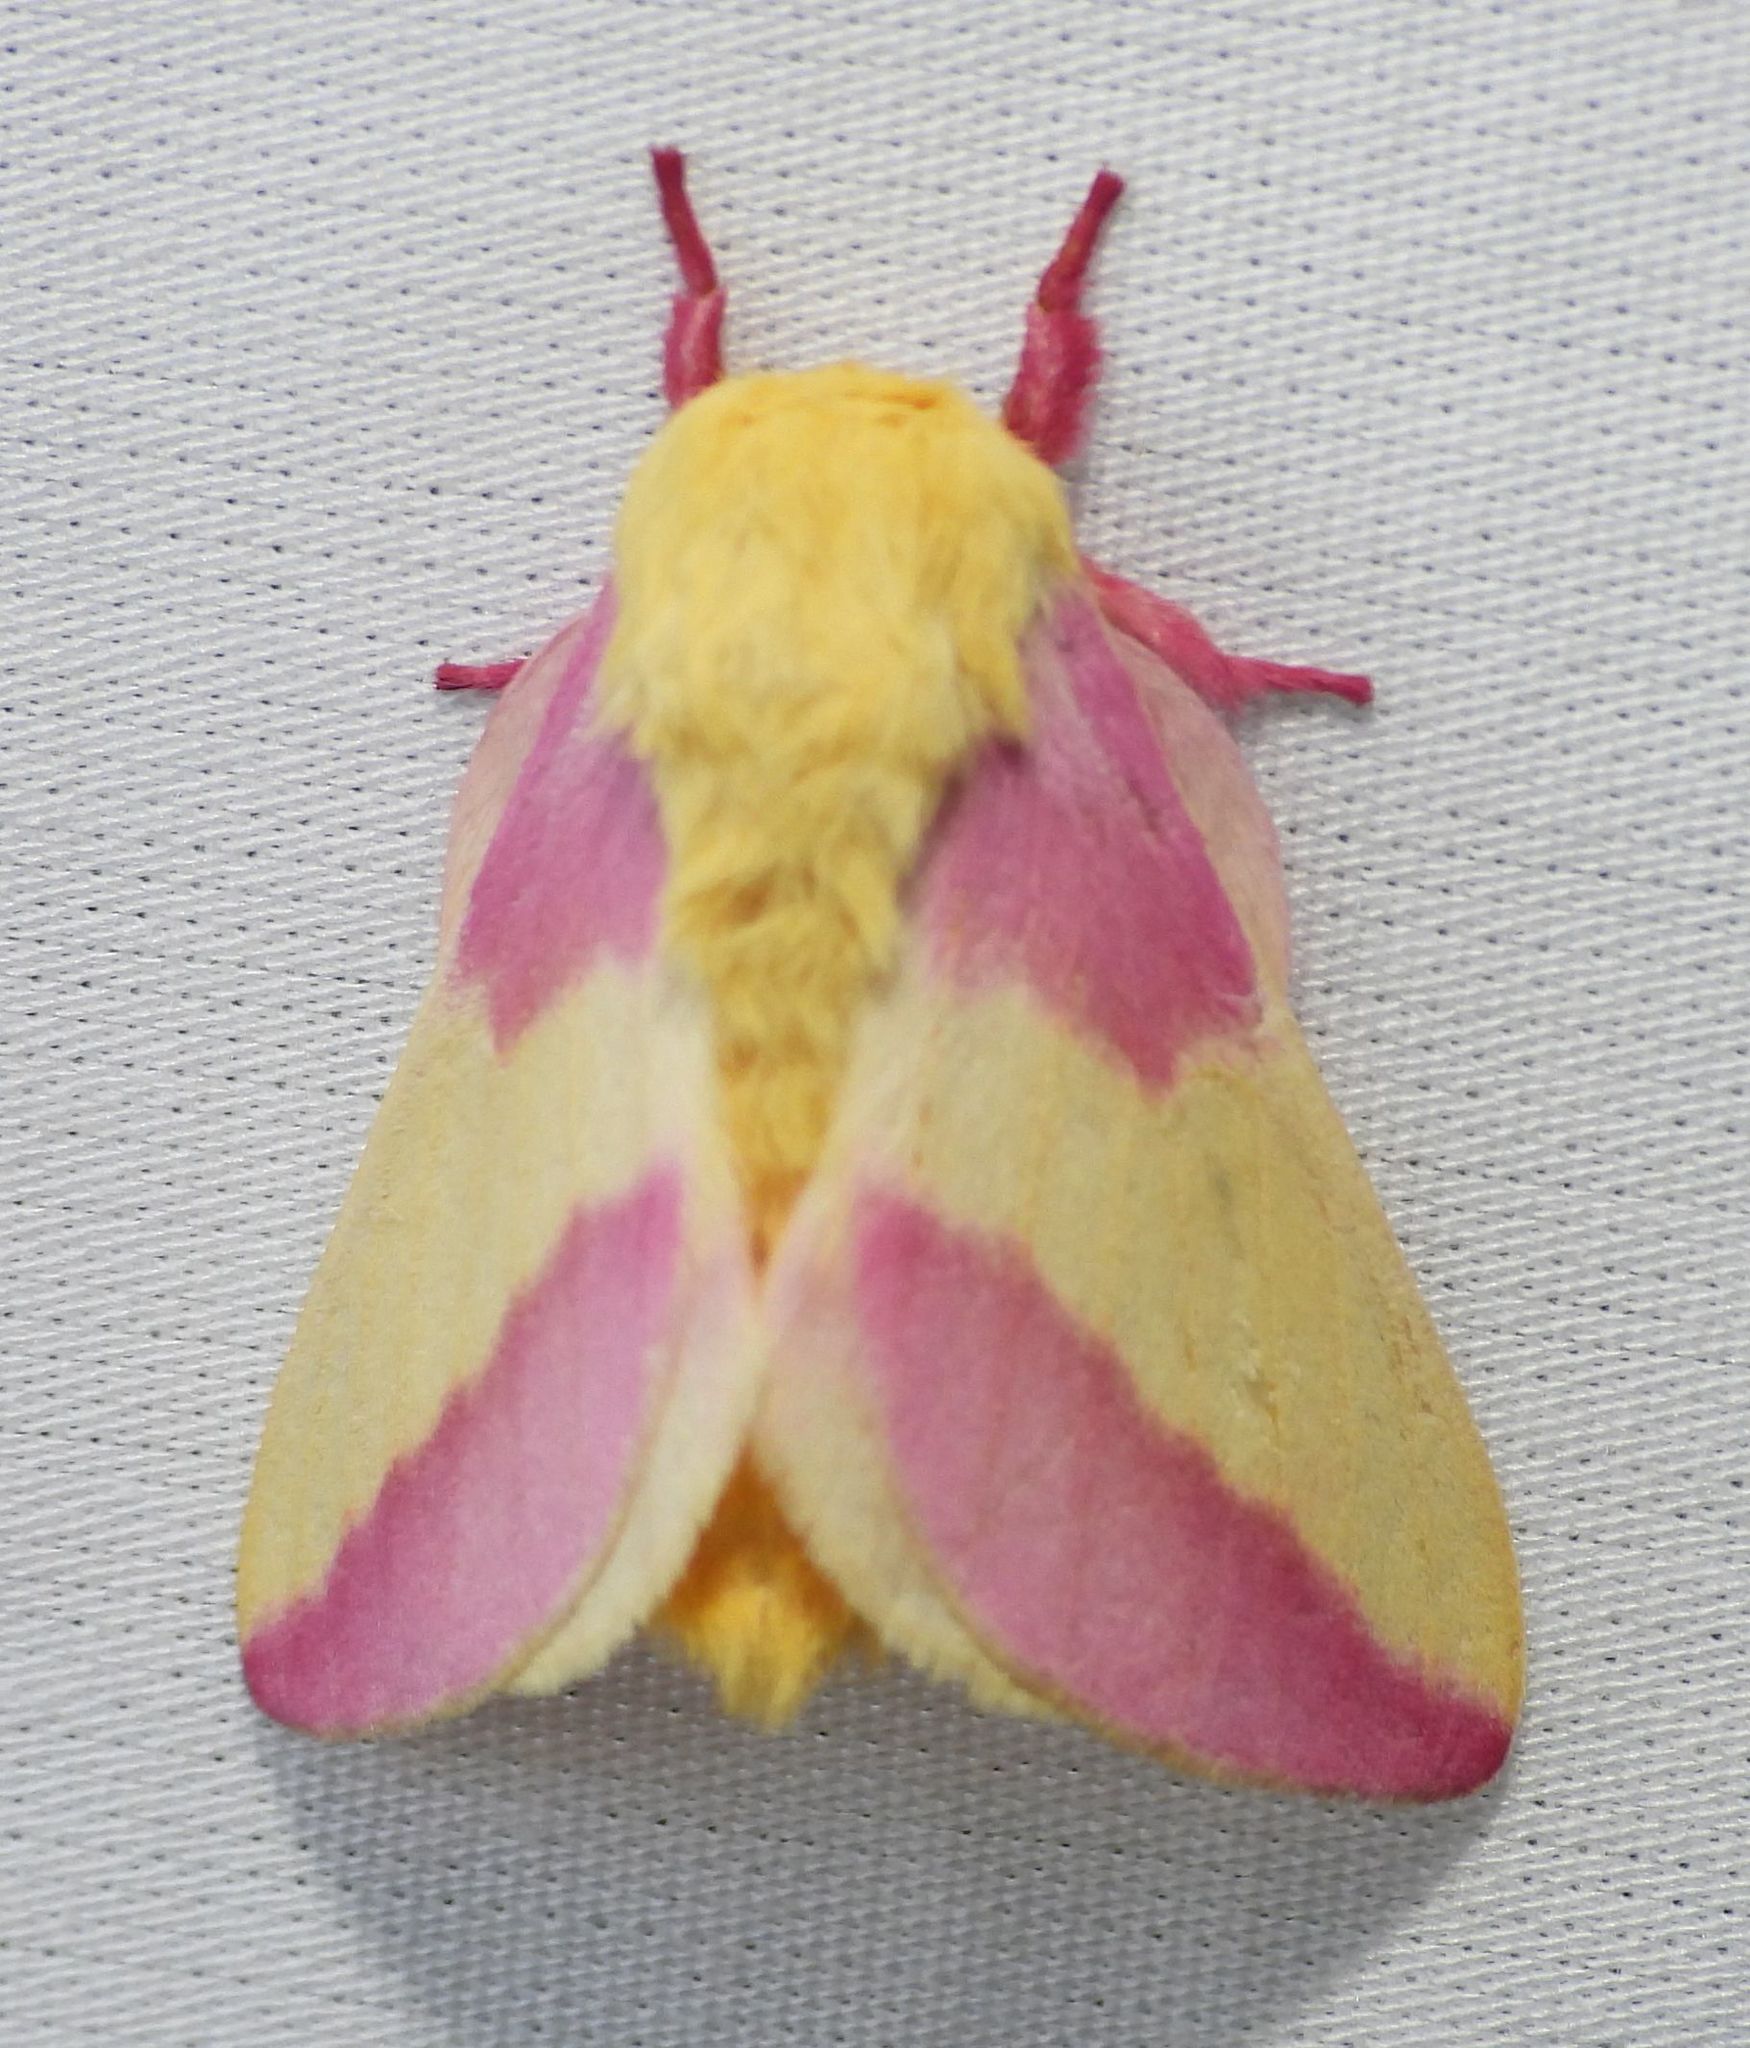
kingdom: Animalia
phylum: Arthropoda
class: Insecta
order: Lepidoptera
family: Saturniidae
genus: Dryocampa
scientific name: Dryocampa rubicunda
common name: Rosy maple moth
